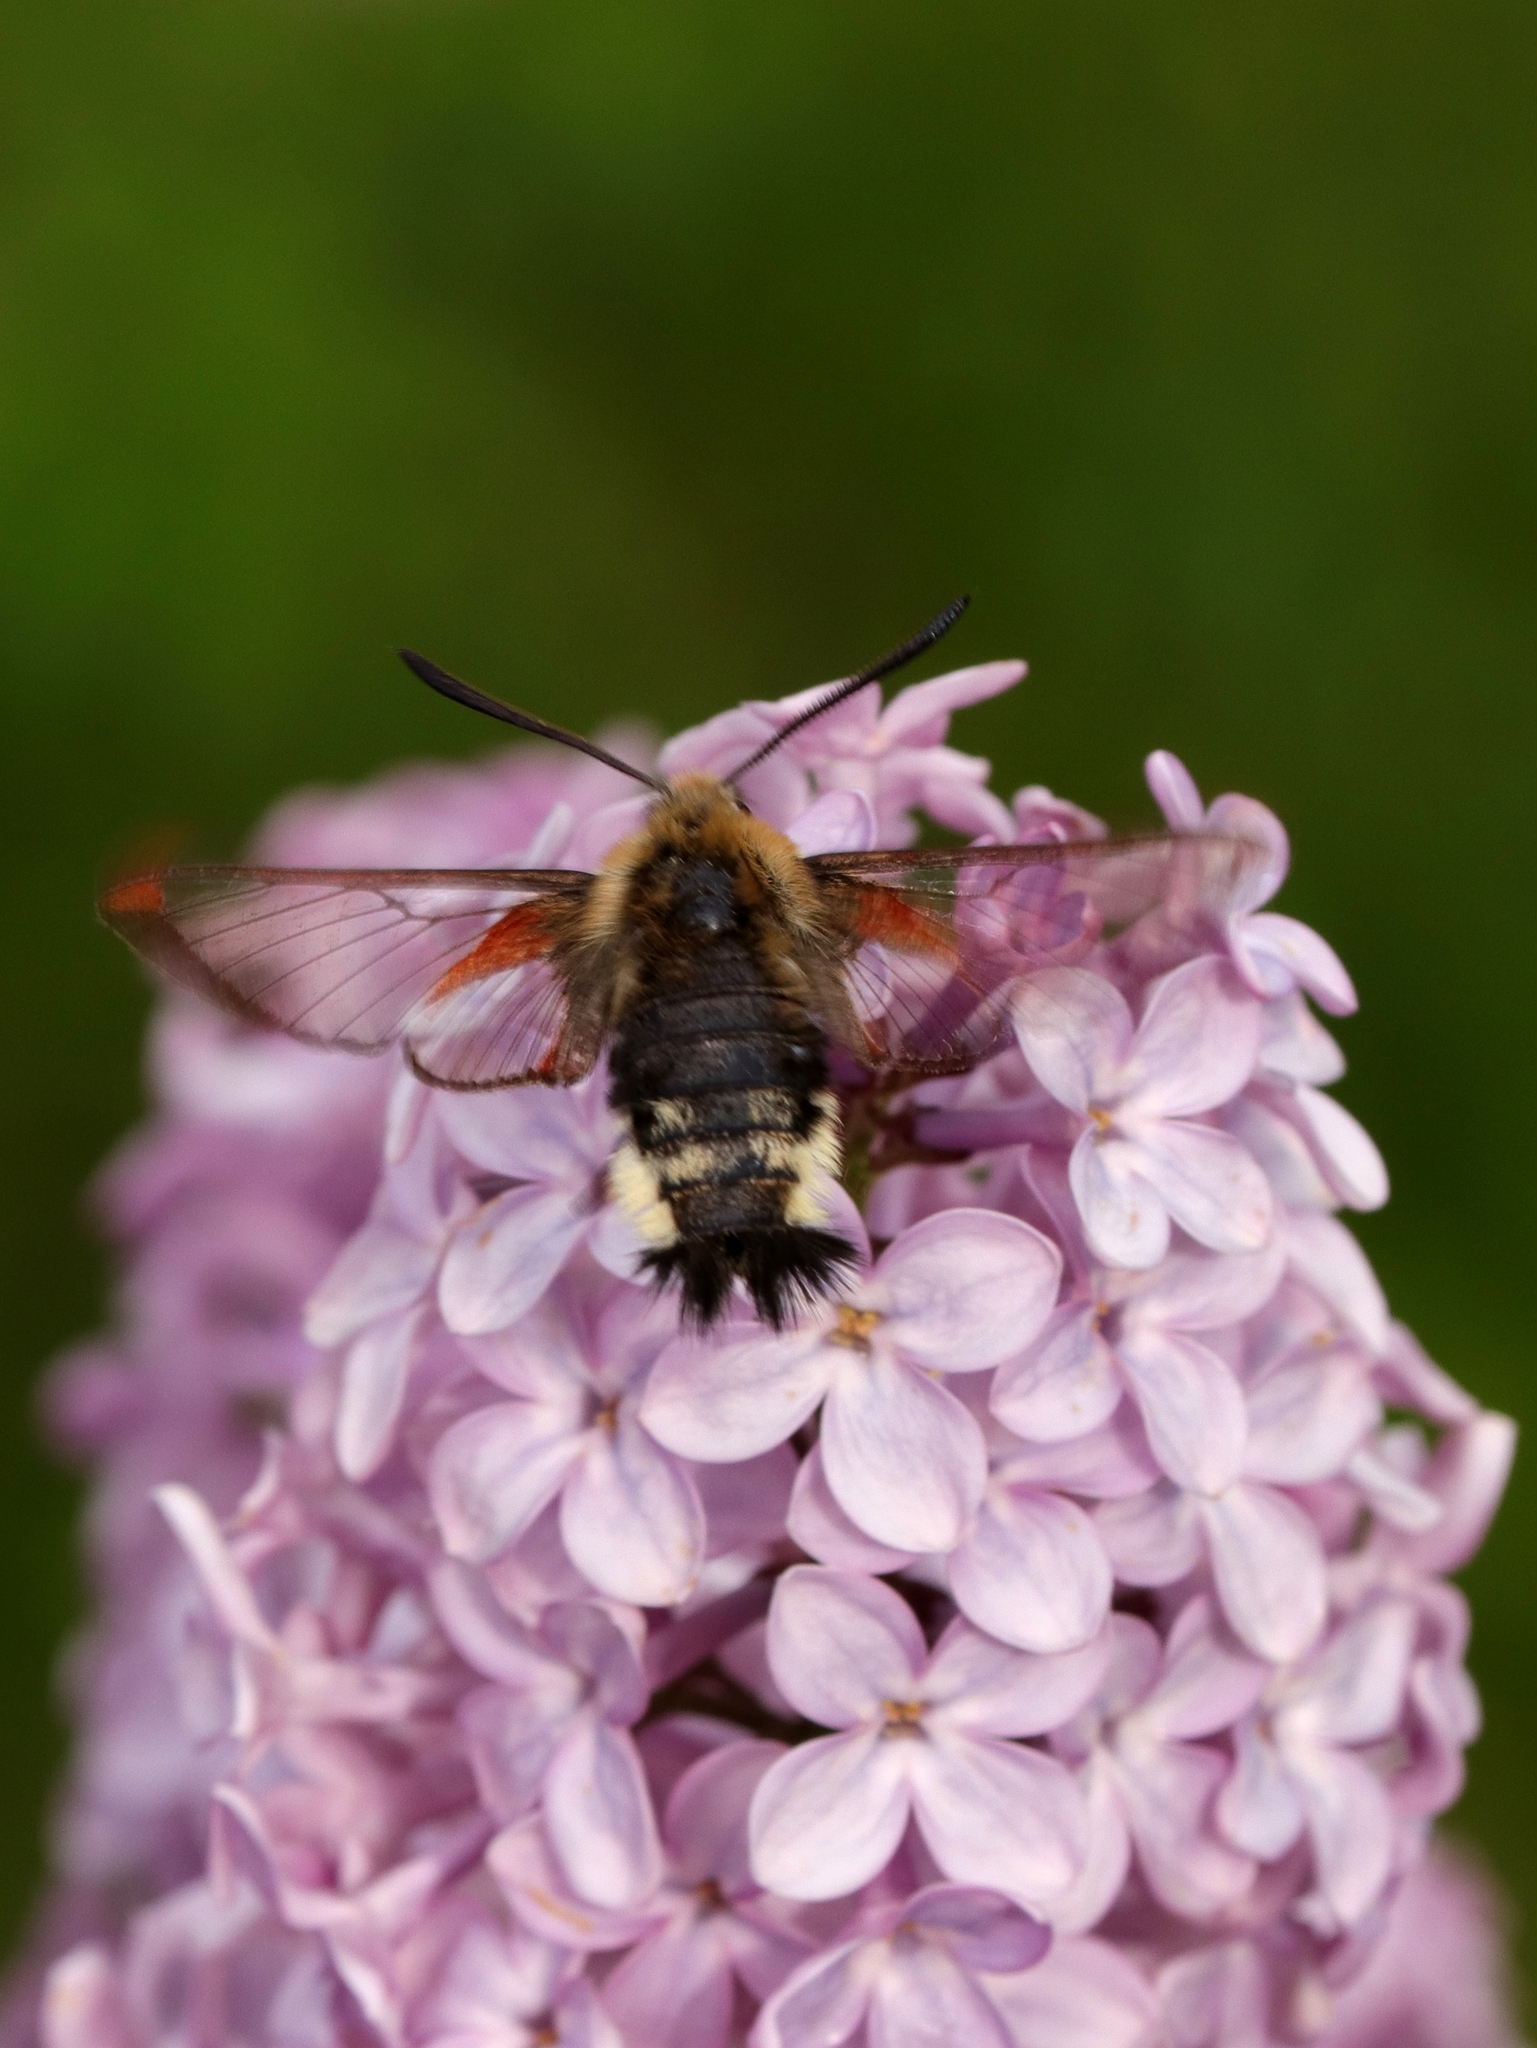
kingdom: Animalia
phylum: Arthropoda
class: Insecta
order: Lepidoptera
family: Sphingidae
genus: Hemaris
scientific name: Hemaris thetis
